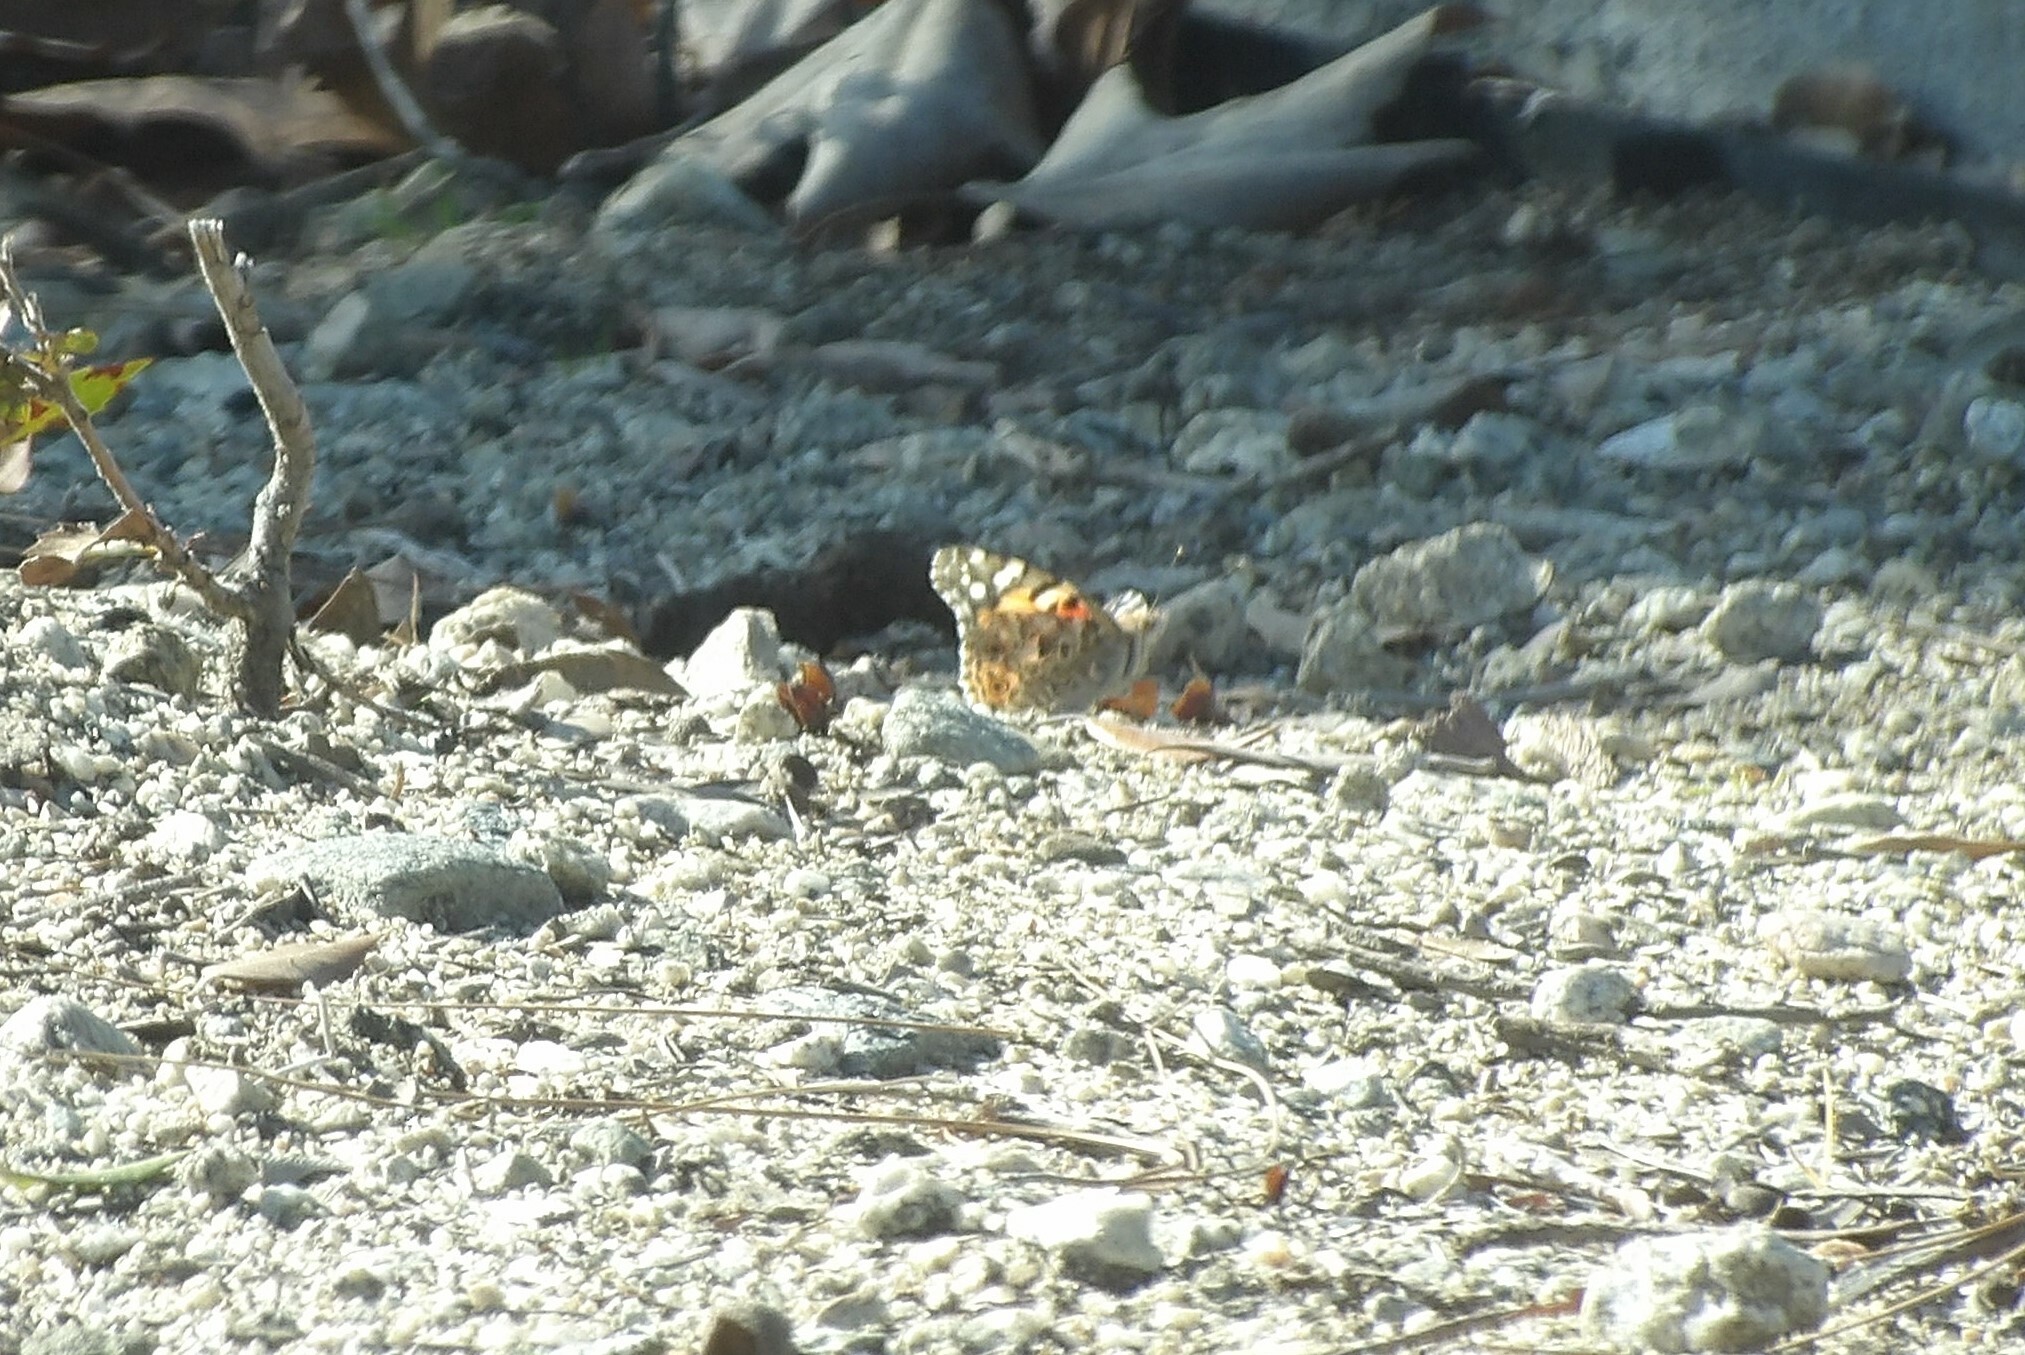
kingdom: Animalia
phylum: Arthropoda
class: Insecta
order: Lepidoptera
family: Nymphalidae
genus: Vanessa
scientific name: Vanessa cardui
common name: Painted lady
